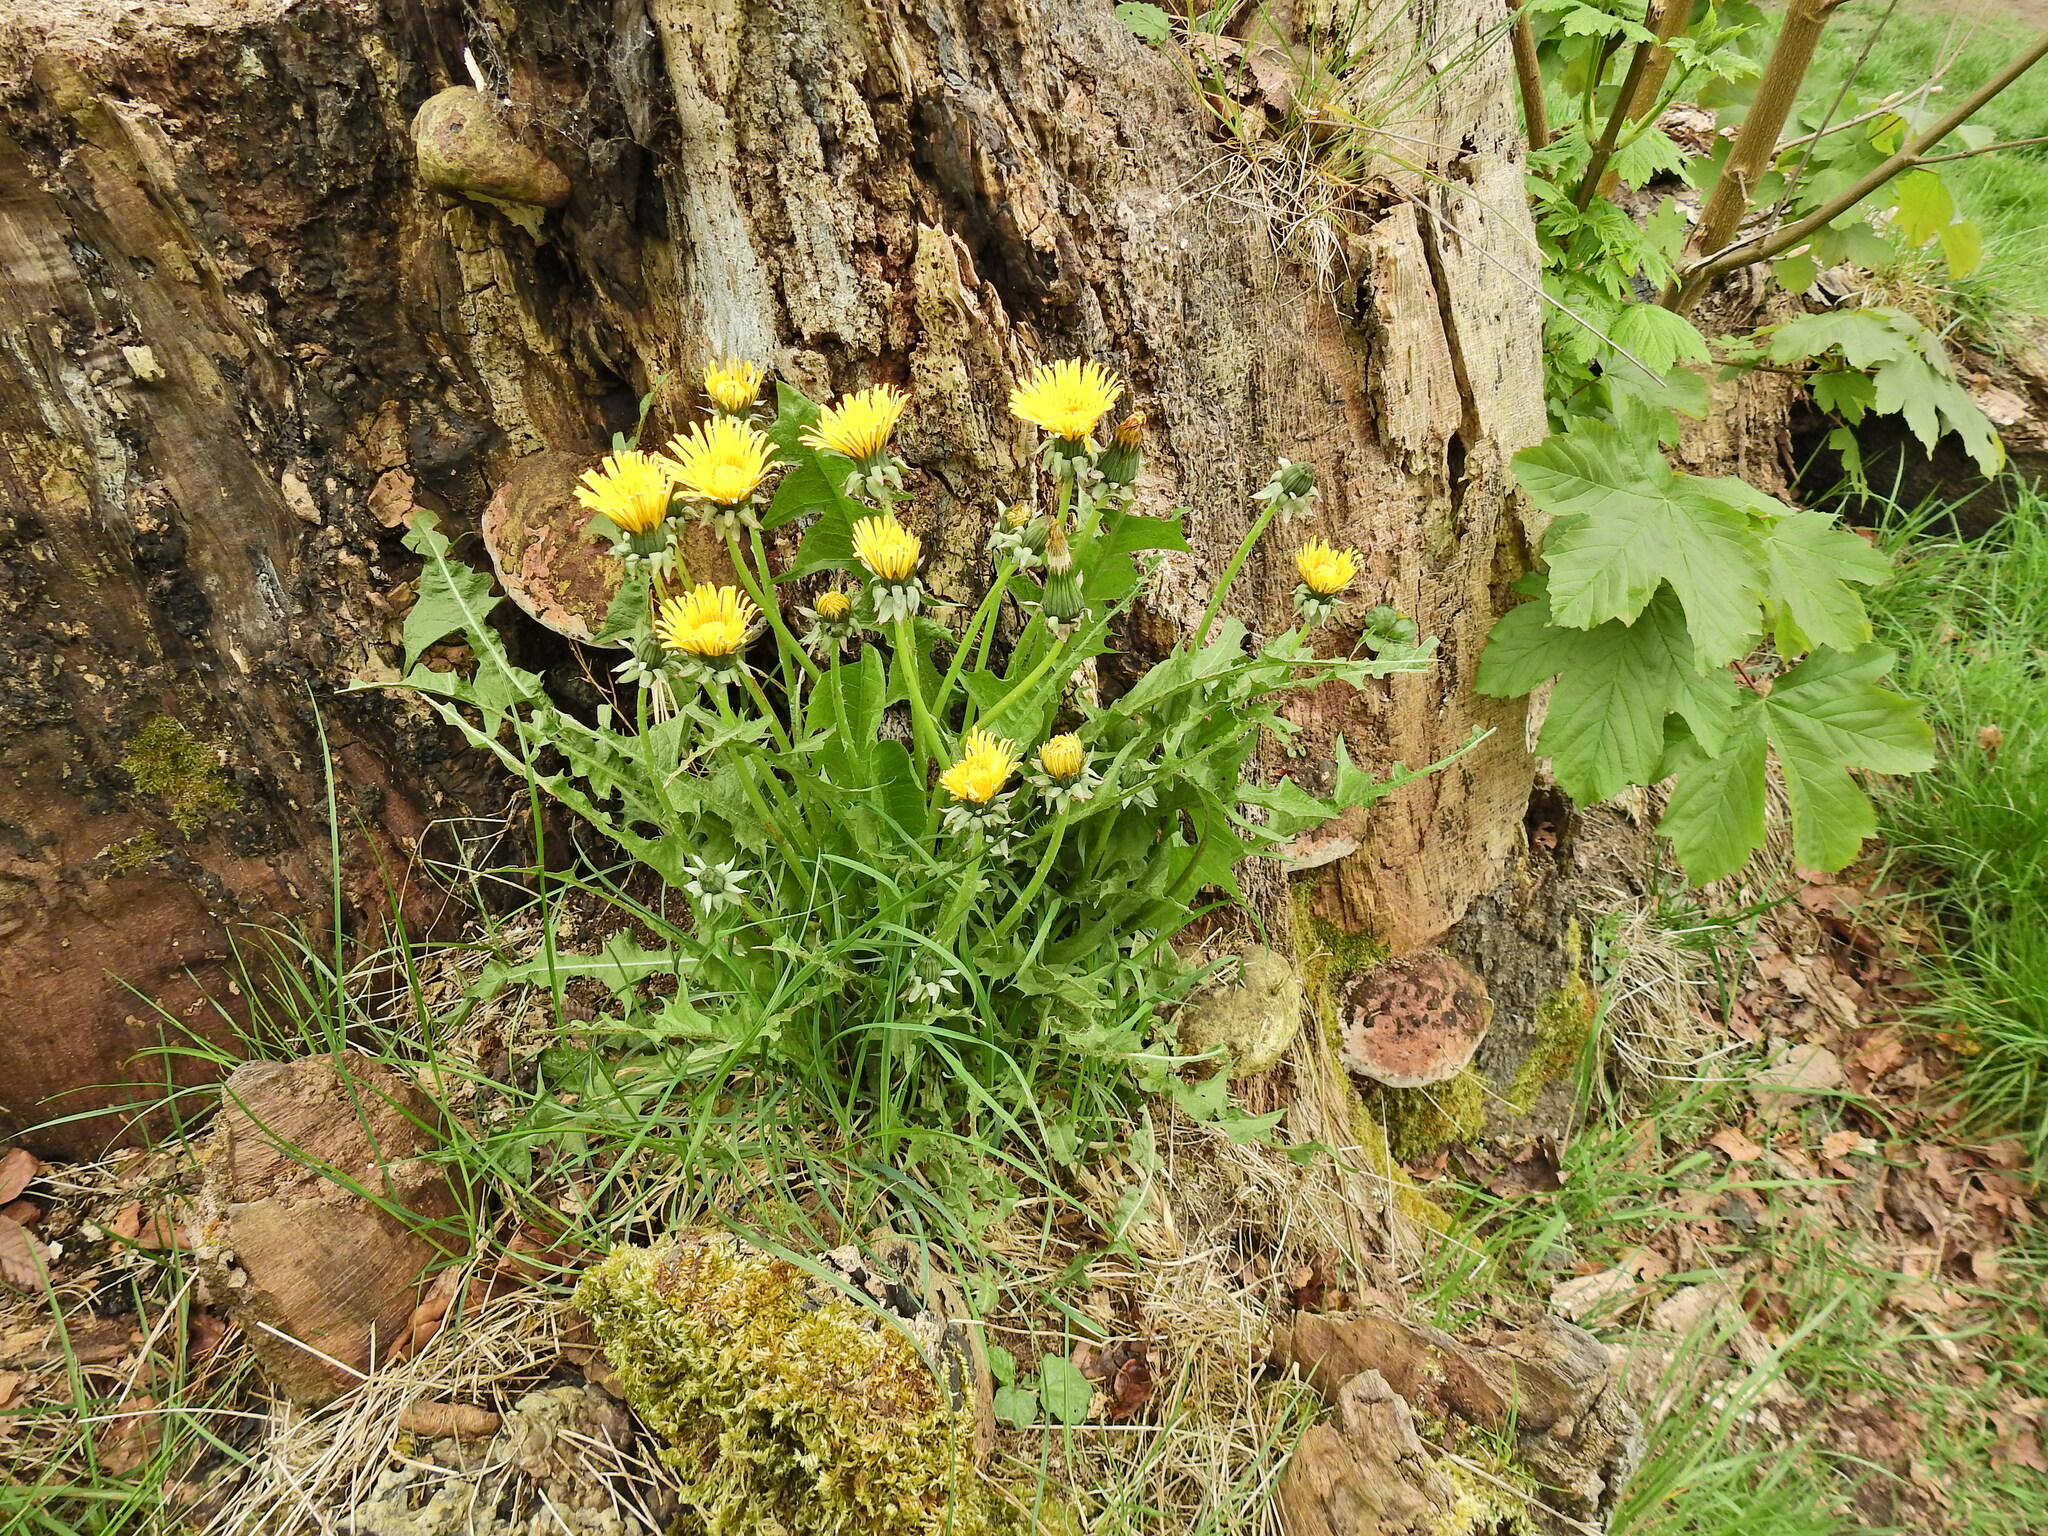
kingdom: Plantae
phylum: Tracheophyta
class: Magnoliopsida
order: Asterales
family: Asteraceae
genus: Taraxacum
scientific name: Taraxacum officinale
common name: Common dandelion
